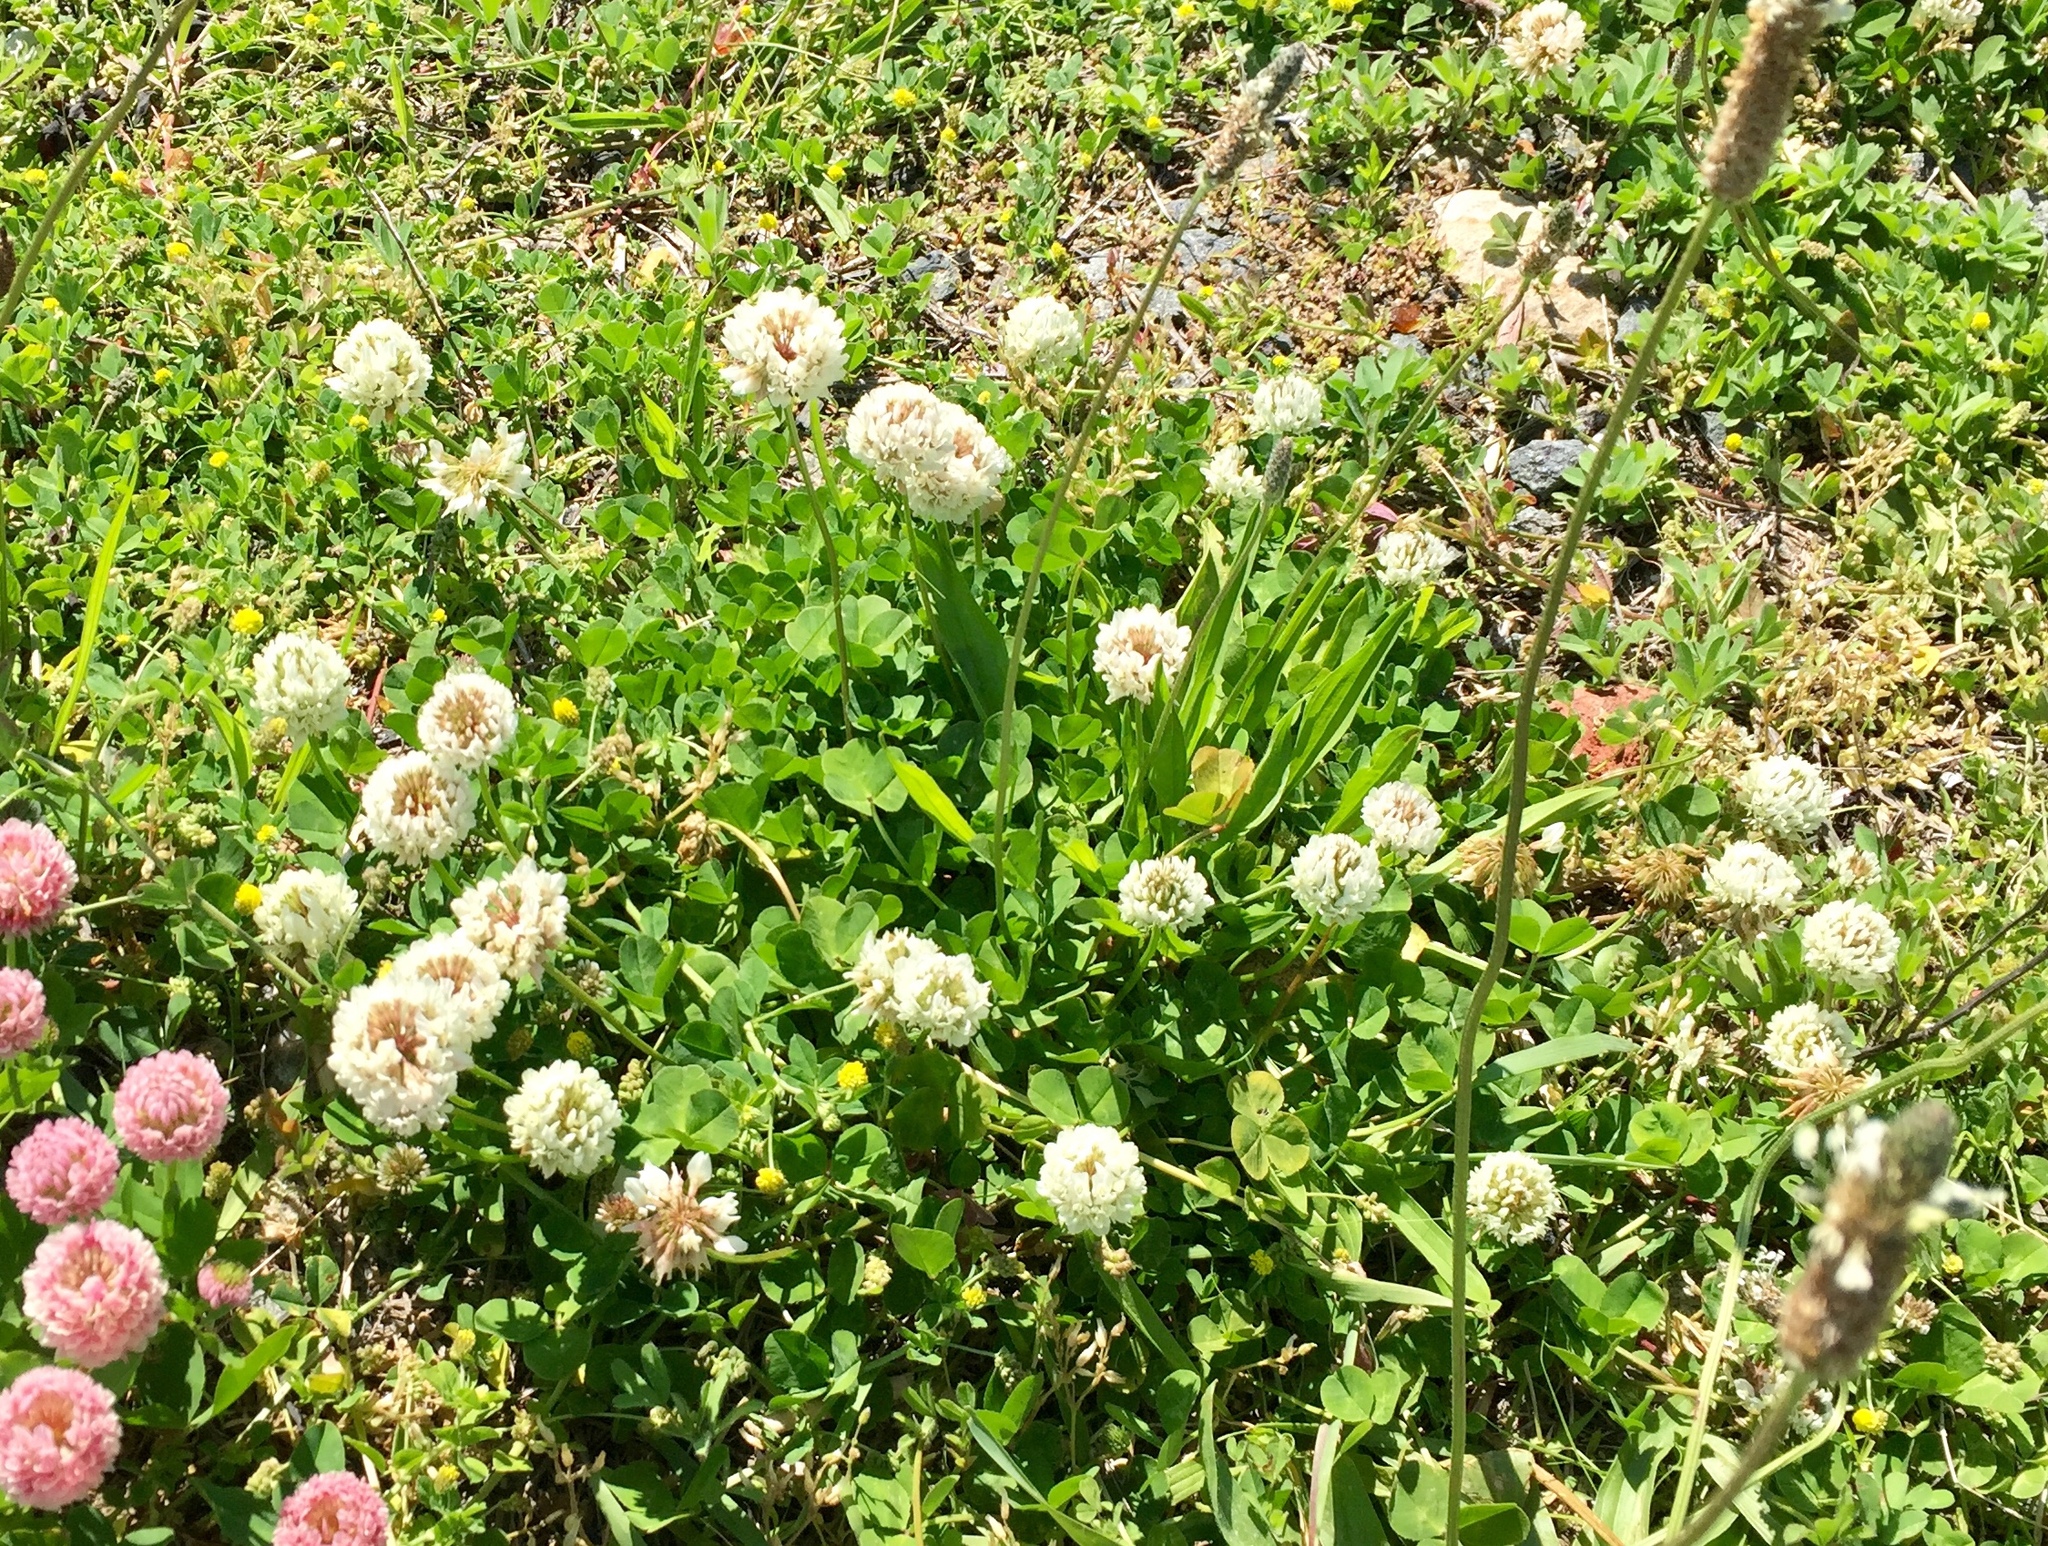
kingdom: Plantae
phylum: Tracheophyta
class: Magnoliopsida
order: Fabales
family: Fabaceae
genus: Trifolium
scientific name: Trifolium repens
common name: White clover
